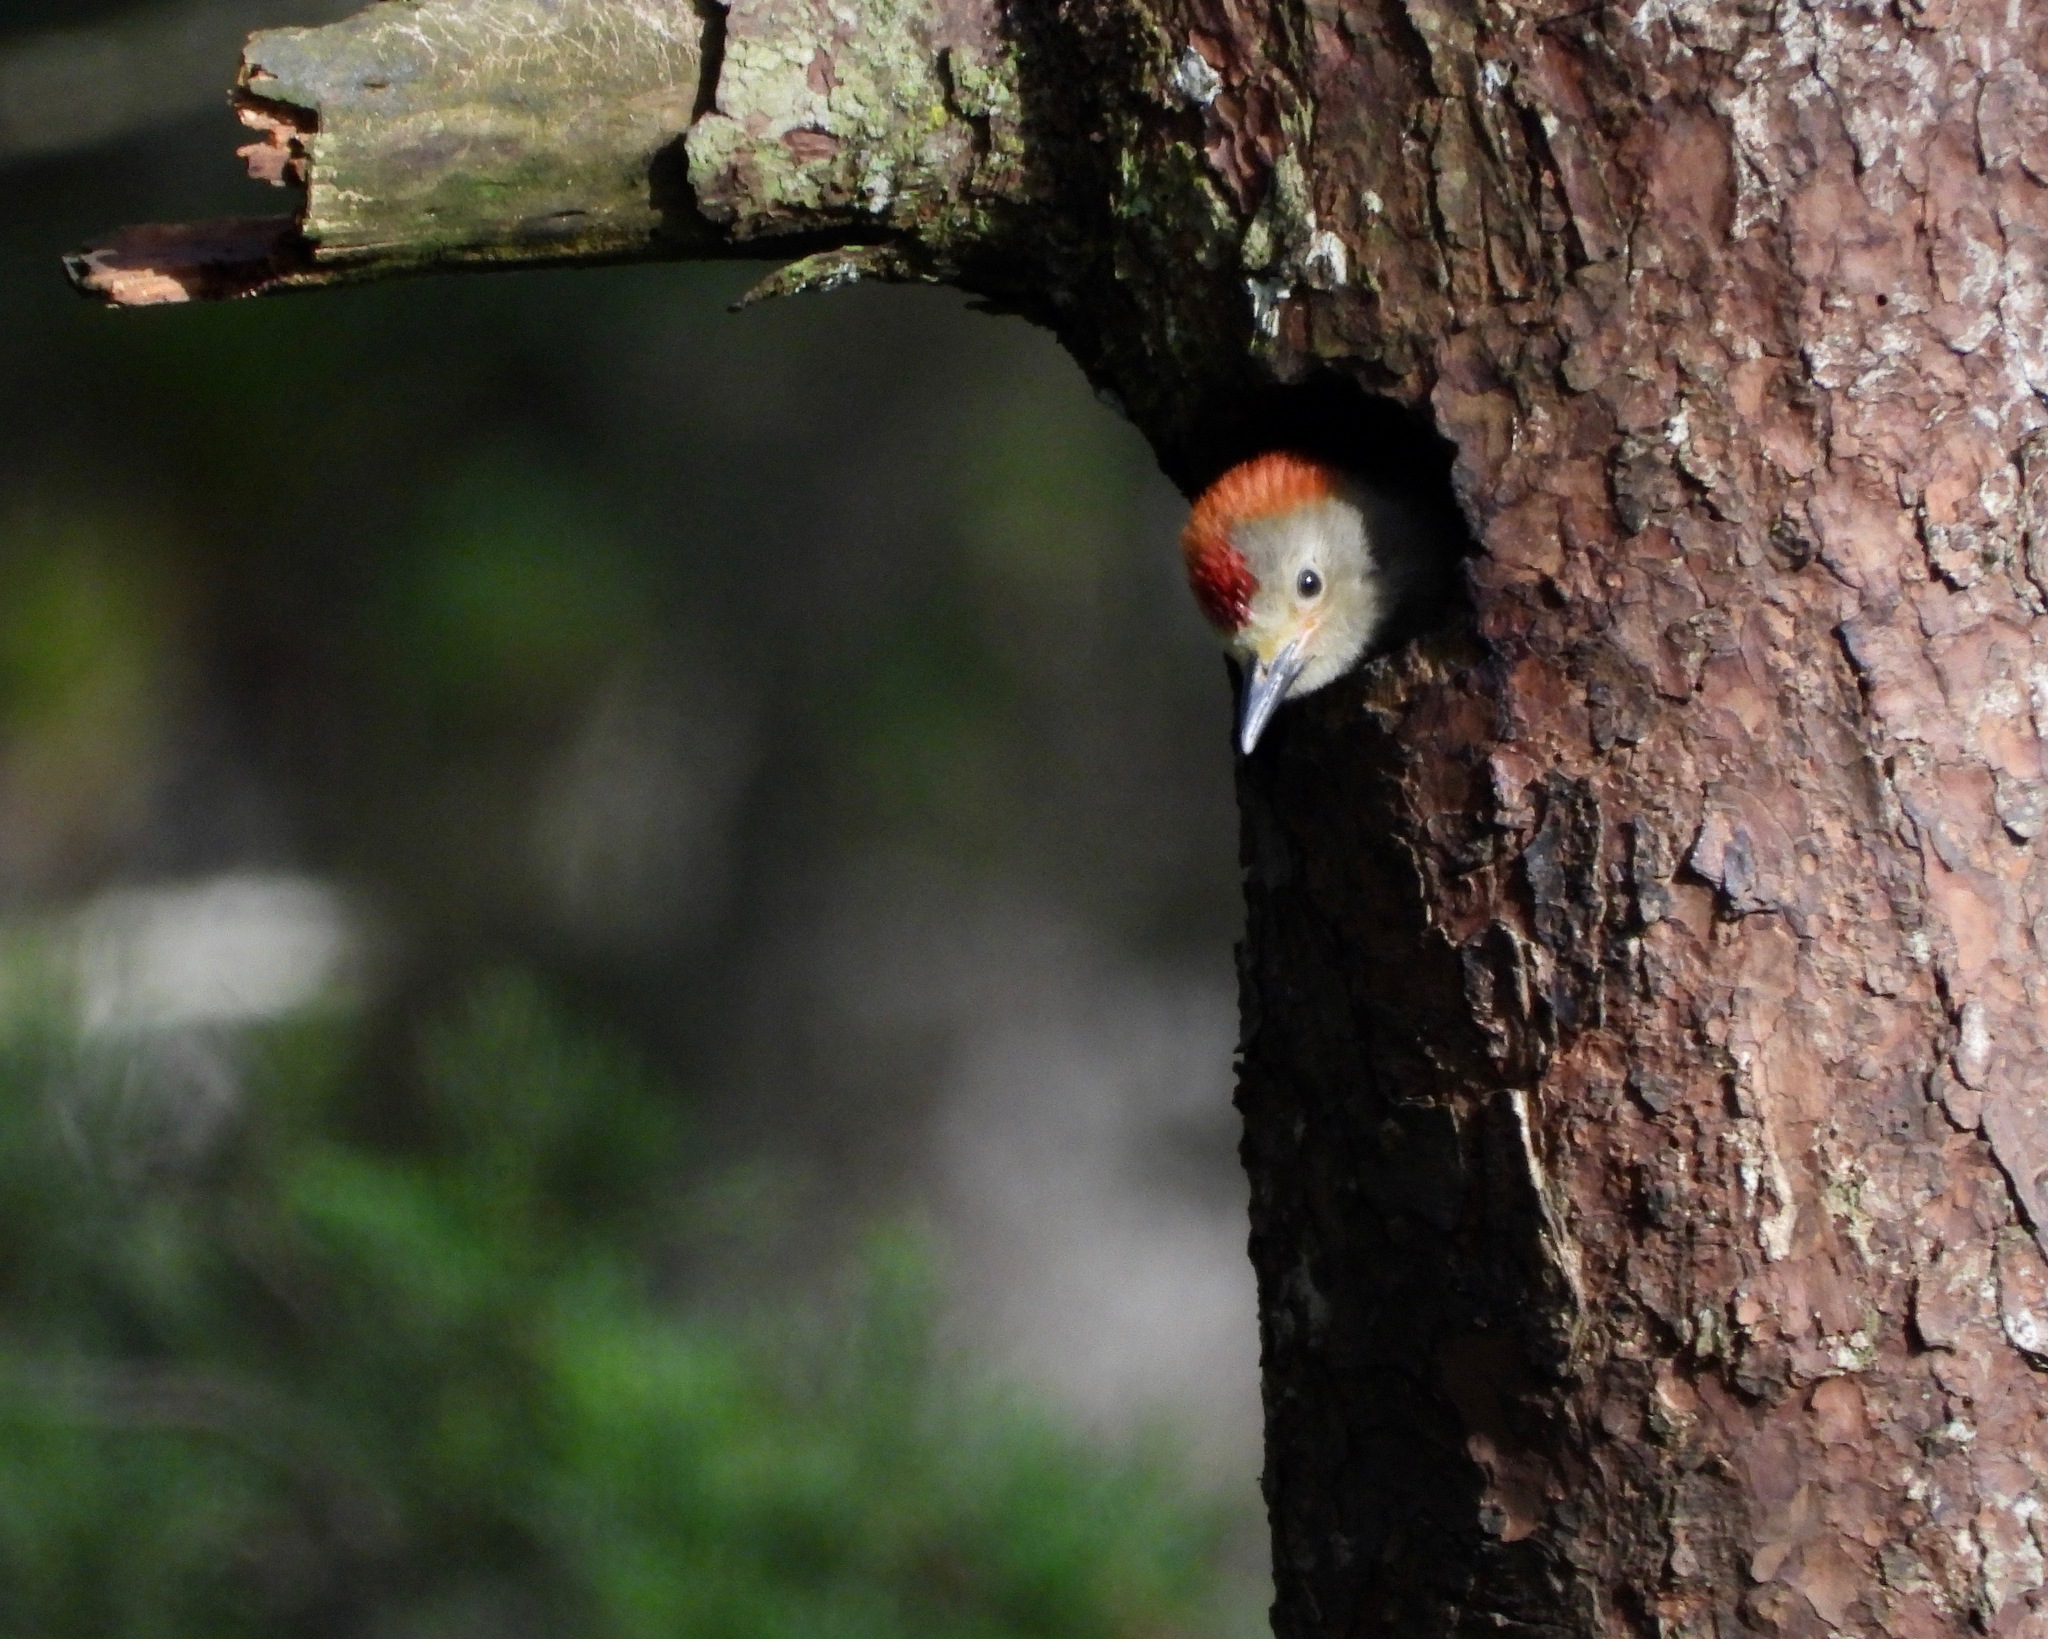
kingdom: Animalia
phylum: Chordata
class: Aves
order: Piciformes
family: Picidae
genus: Melanerpes
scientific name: Melanerpes aurifrons
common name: Golden-fronted woodpecker
